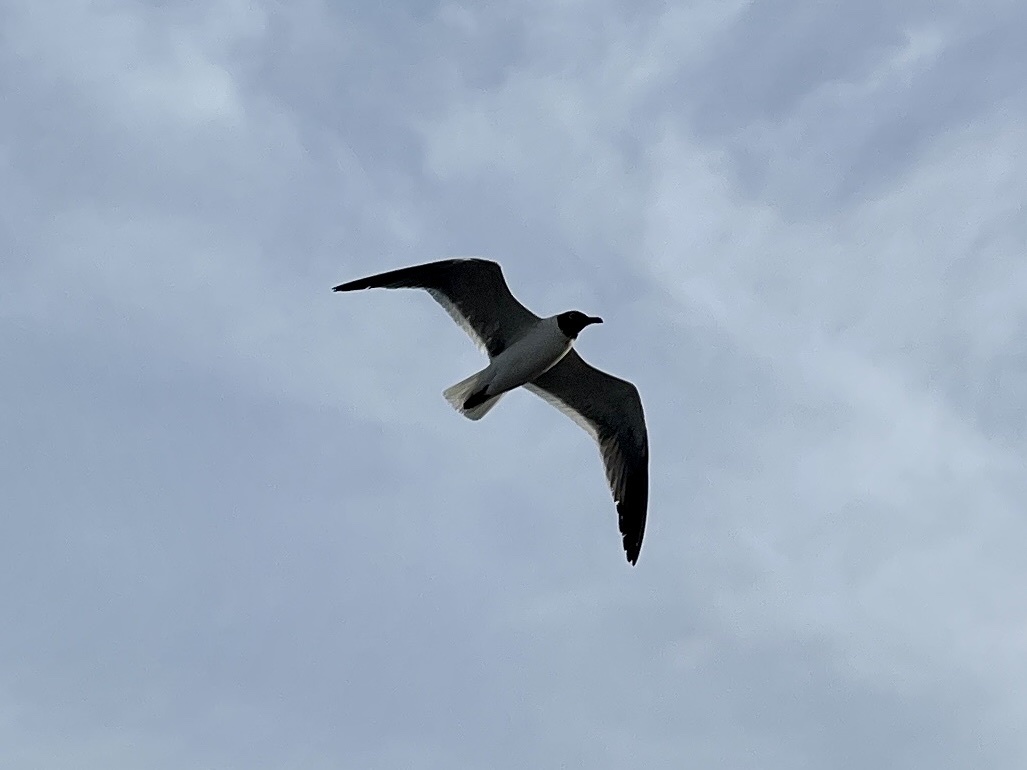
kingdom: Animalia
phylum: Chordata
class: Aves
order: Charadriiformes
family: Laridae
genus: Leucophaeus
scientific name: Leucophaeus atricilla
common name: Laughing gull
